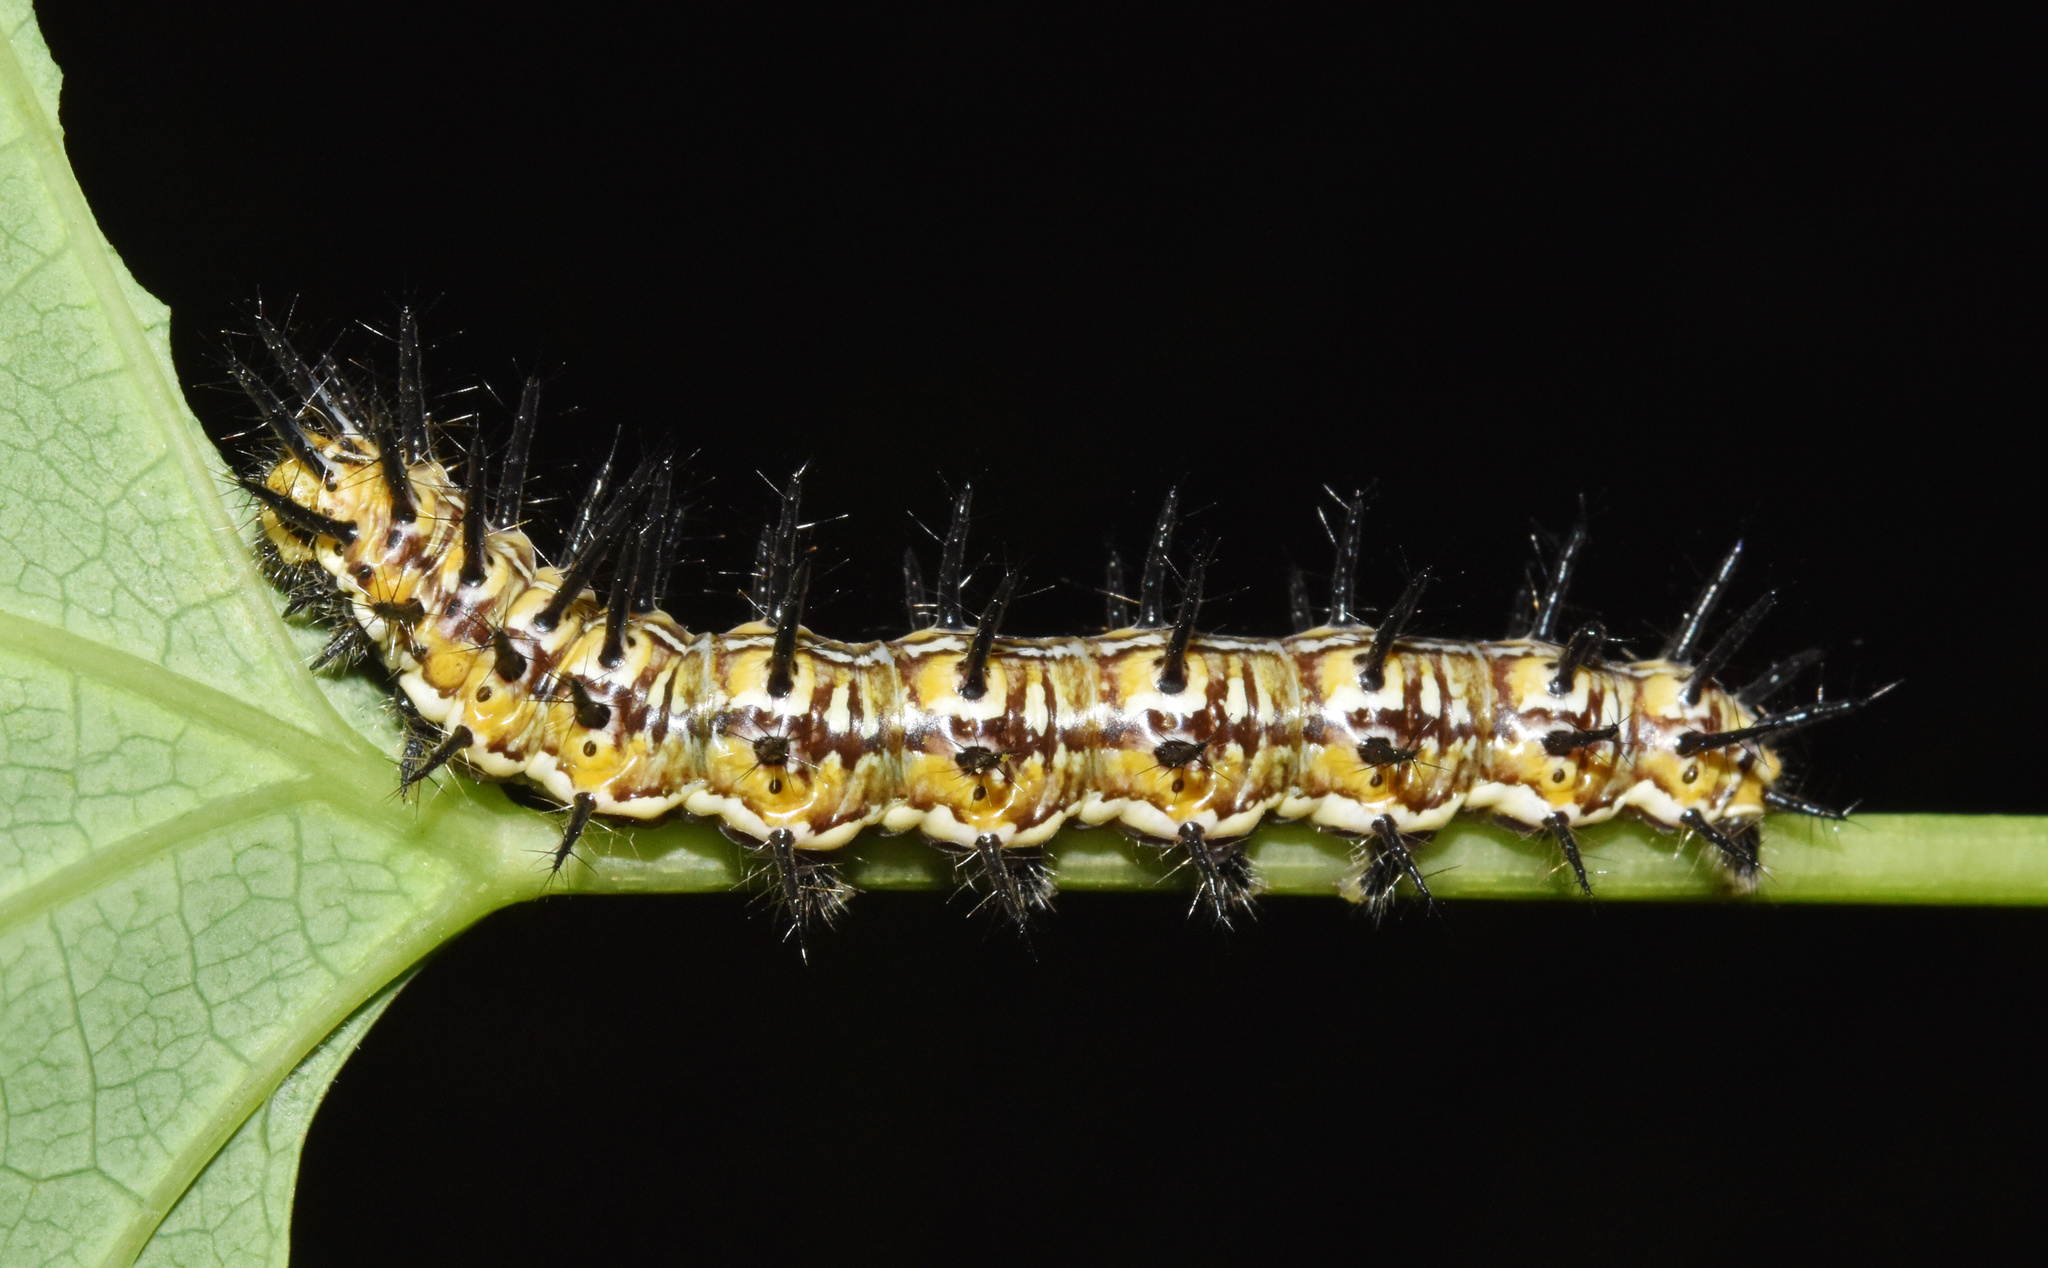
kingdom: Animalia
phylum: Arthropoda
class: Insecta
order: Lepidoptera
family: Nymphalidae
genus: Stephenia
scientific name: Stephenia
